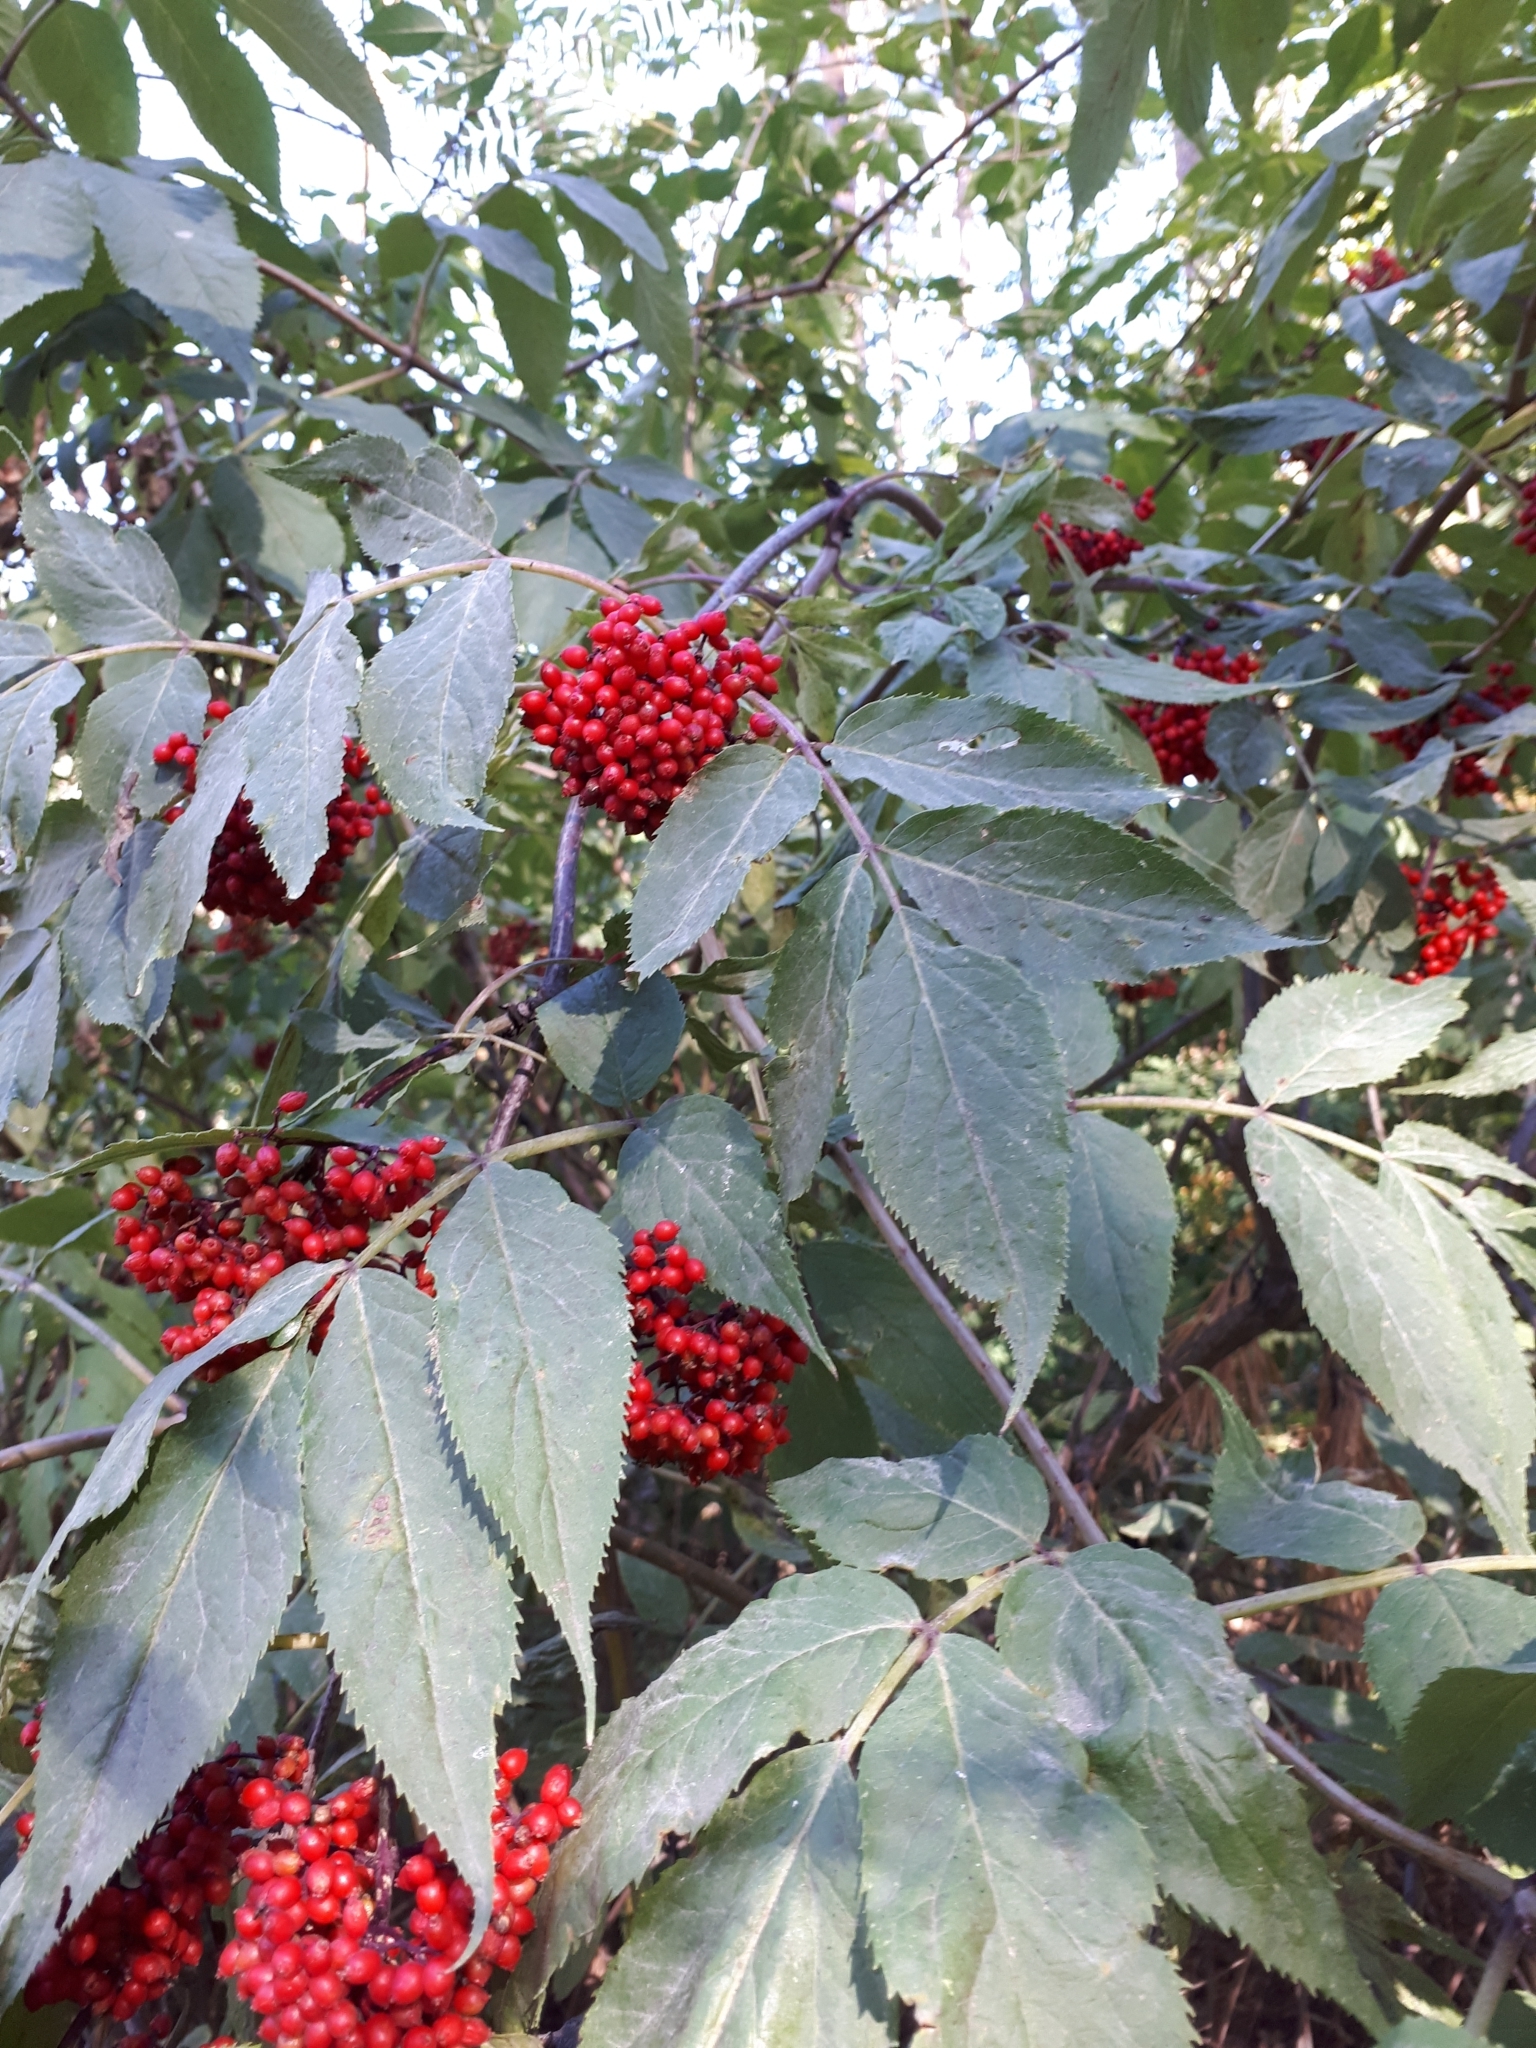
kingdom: Plantae
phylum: Tracheophyta
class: Magnoliopsida
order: Dipsacales
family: Viburnaceae
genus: Sambucus
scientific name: Sambucus racemosa
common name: Red-berried elder
